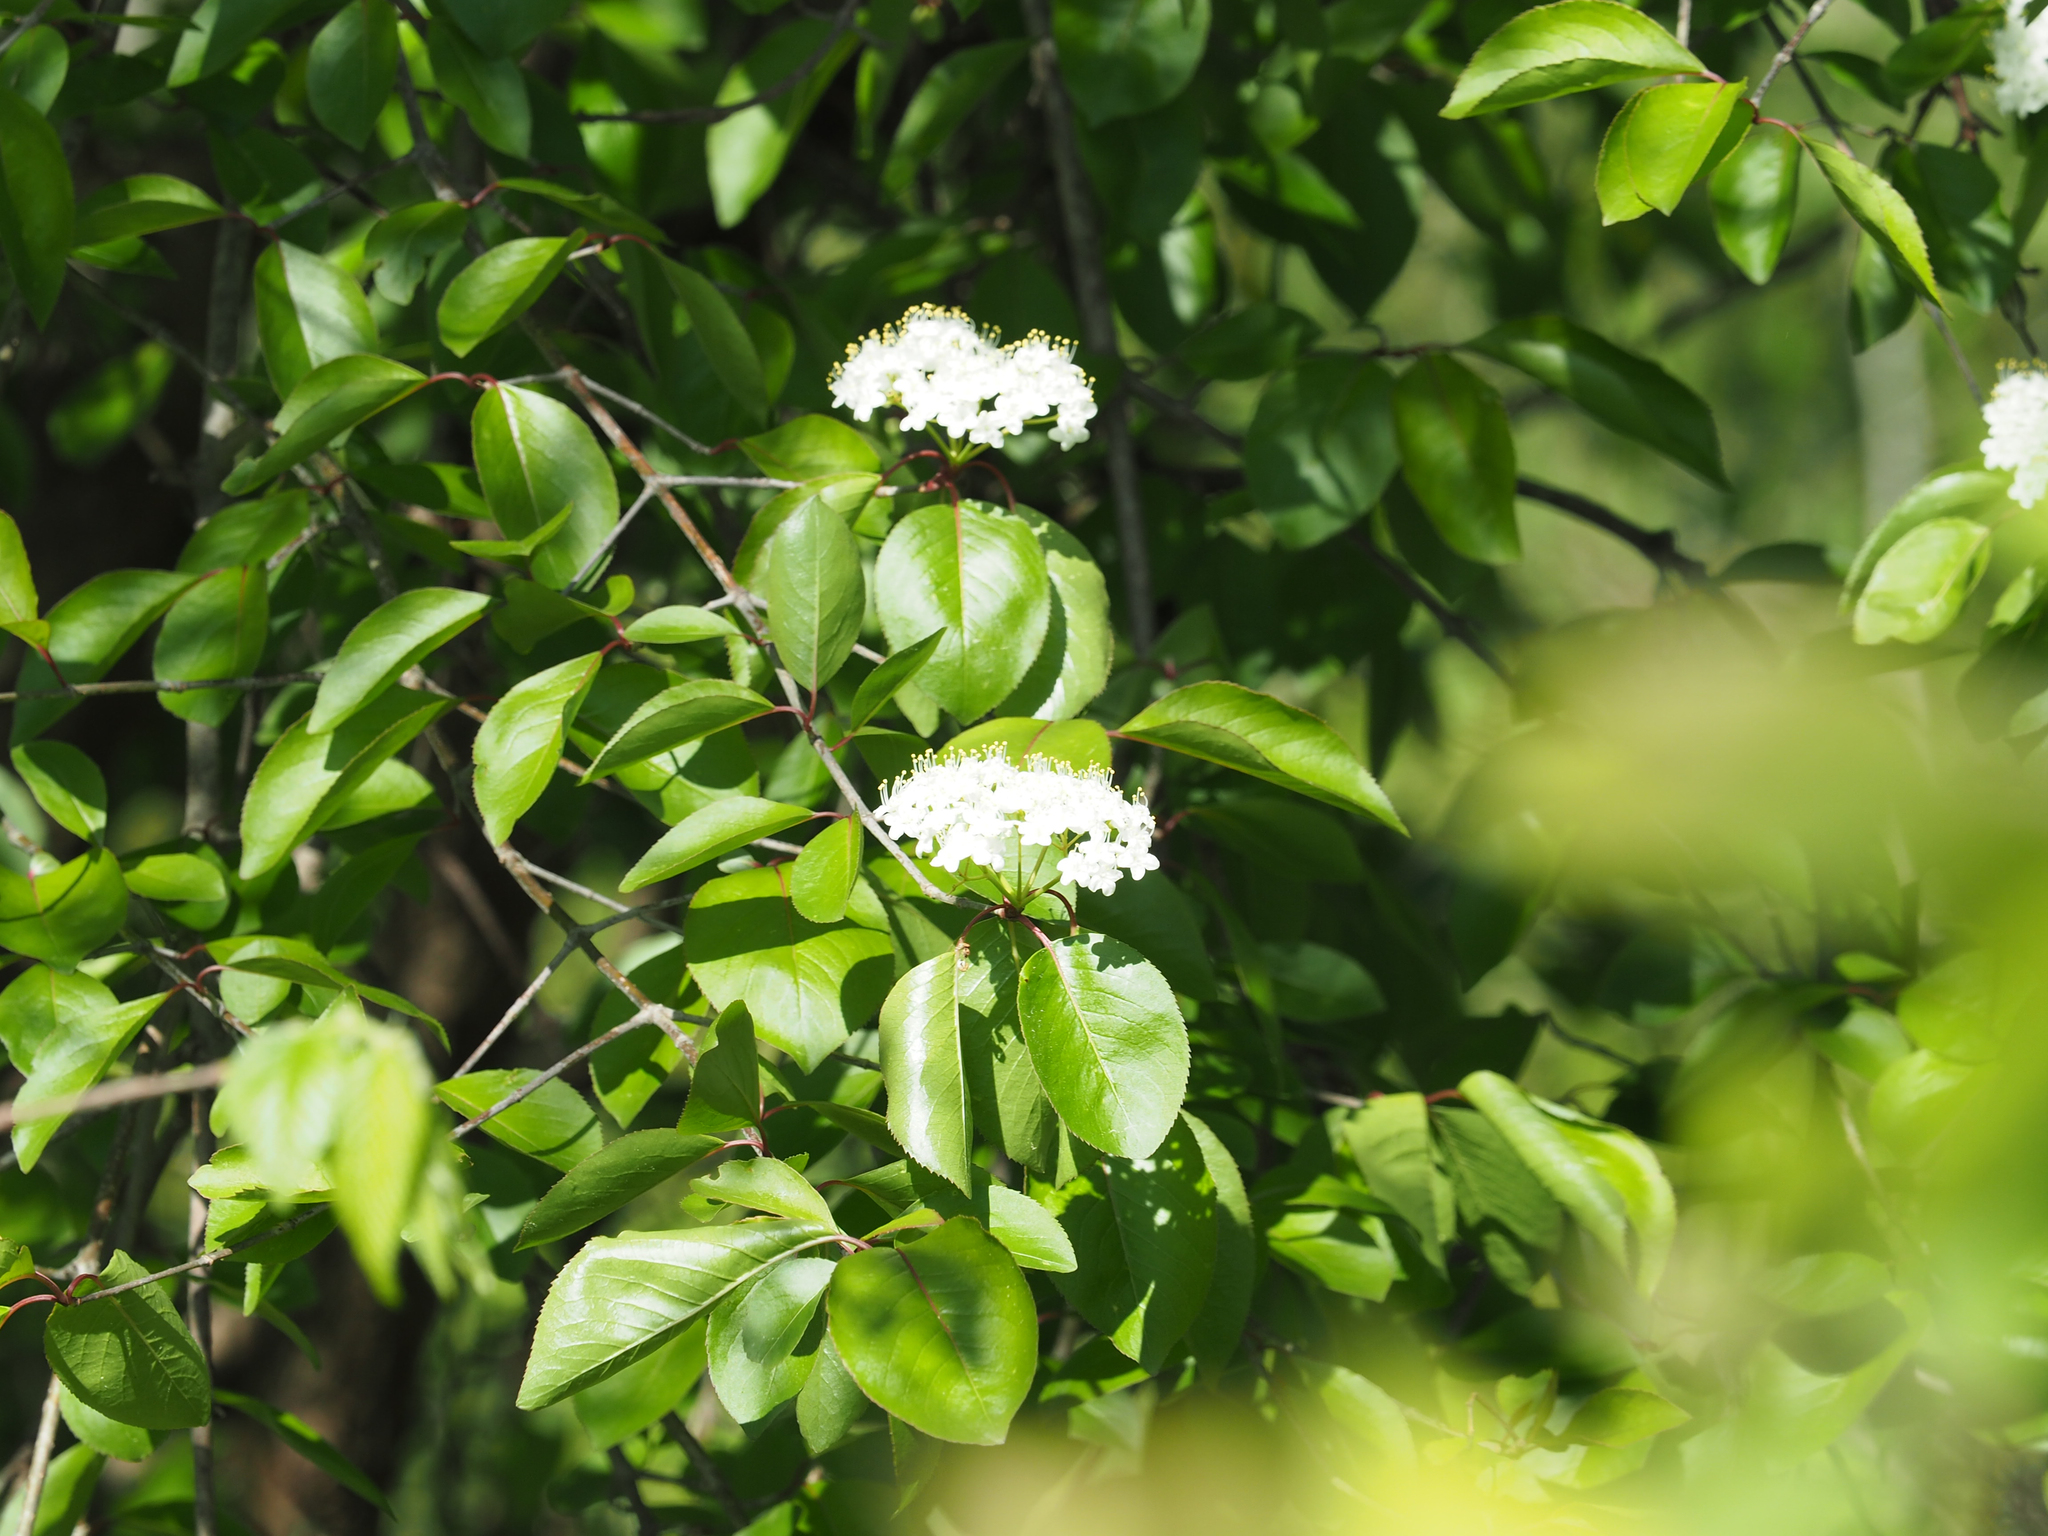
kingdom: Plantae
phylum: Tracheophyta
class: Magnoliopsida
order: Dipsacales
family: Viburnaceae
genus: Viburnum
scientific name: Viburnum prunifolium
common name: Black haw
